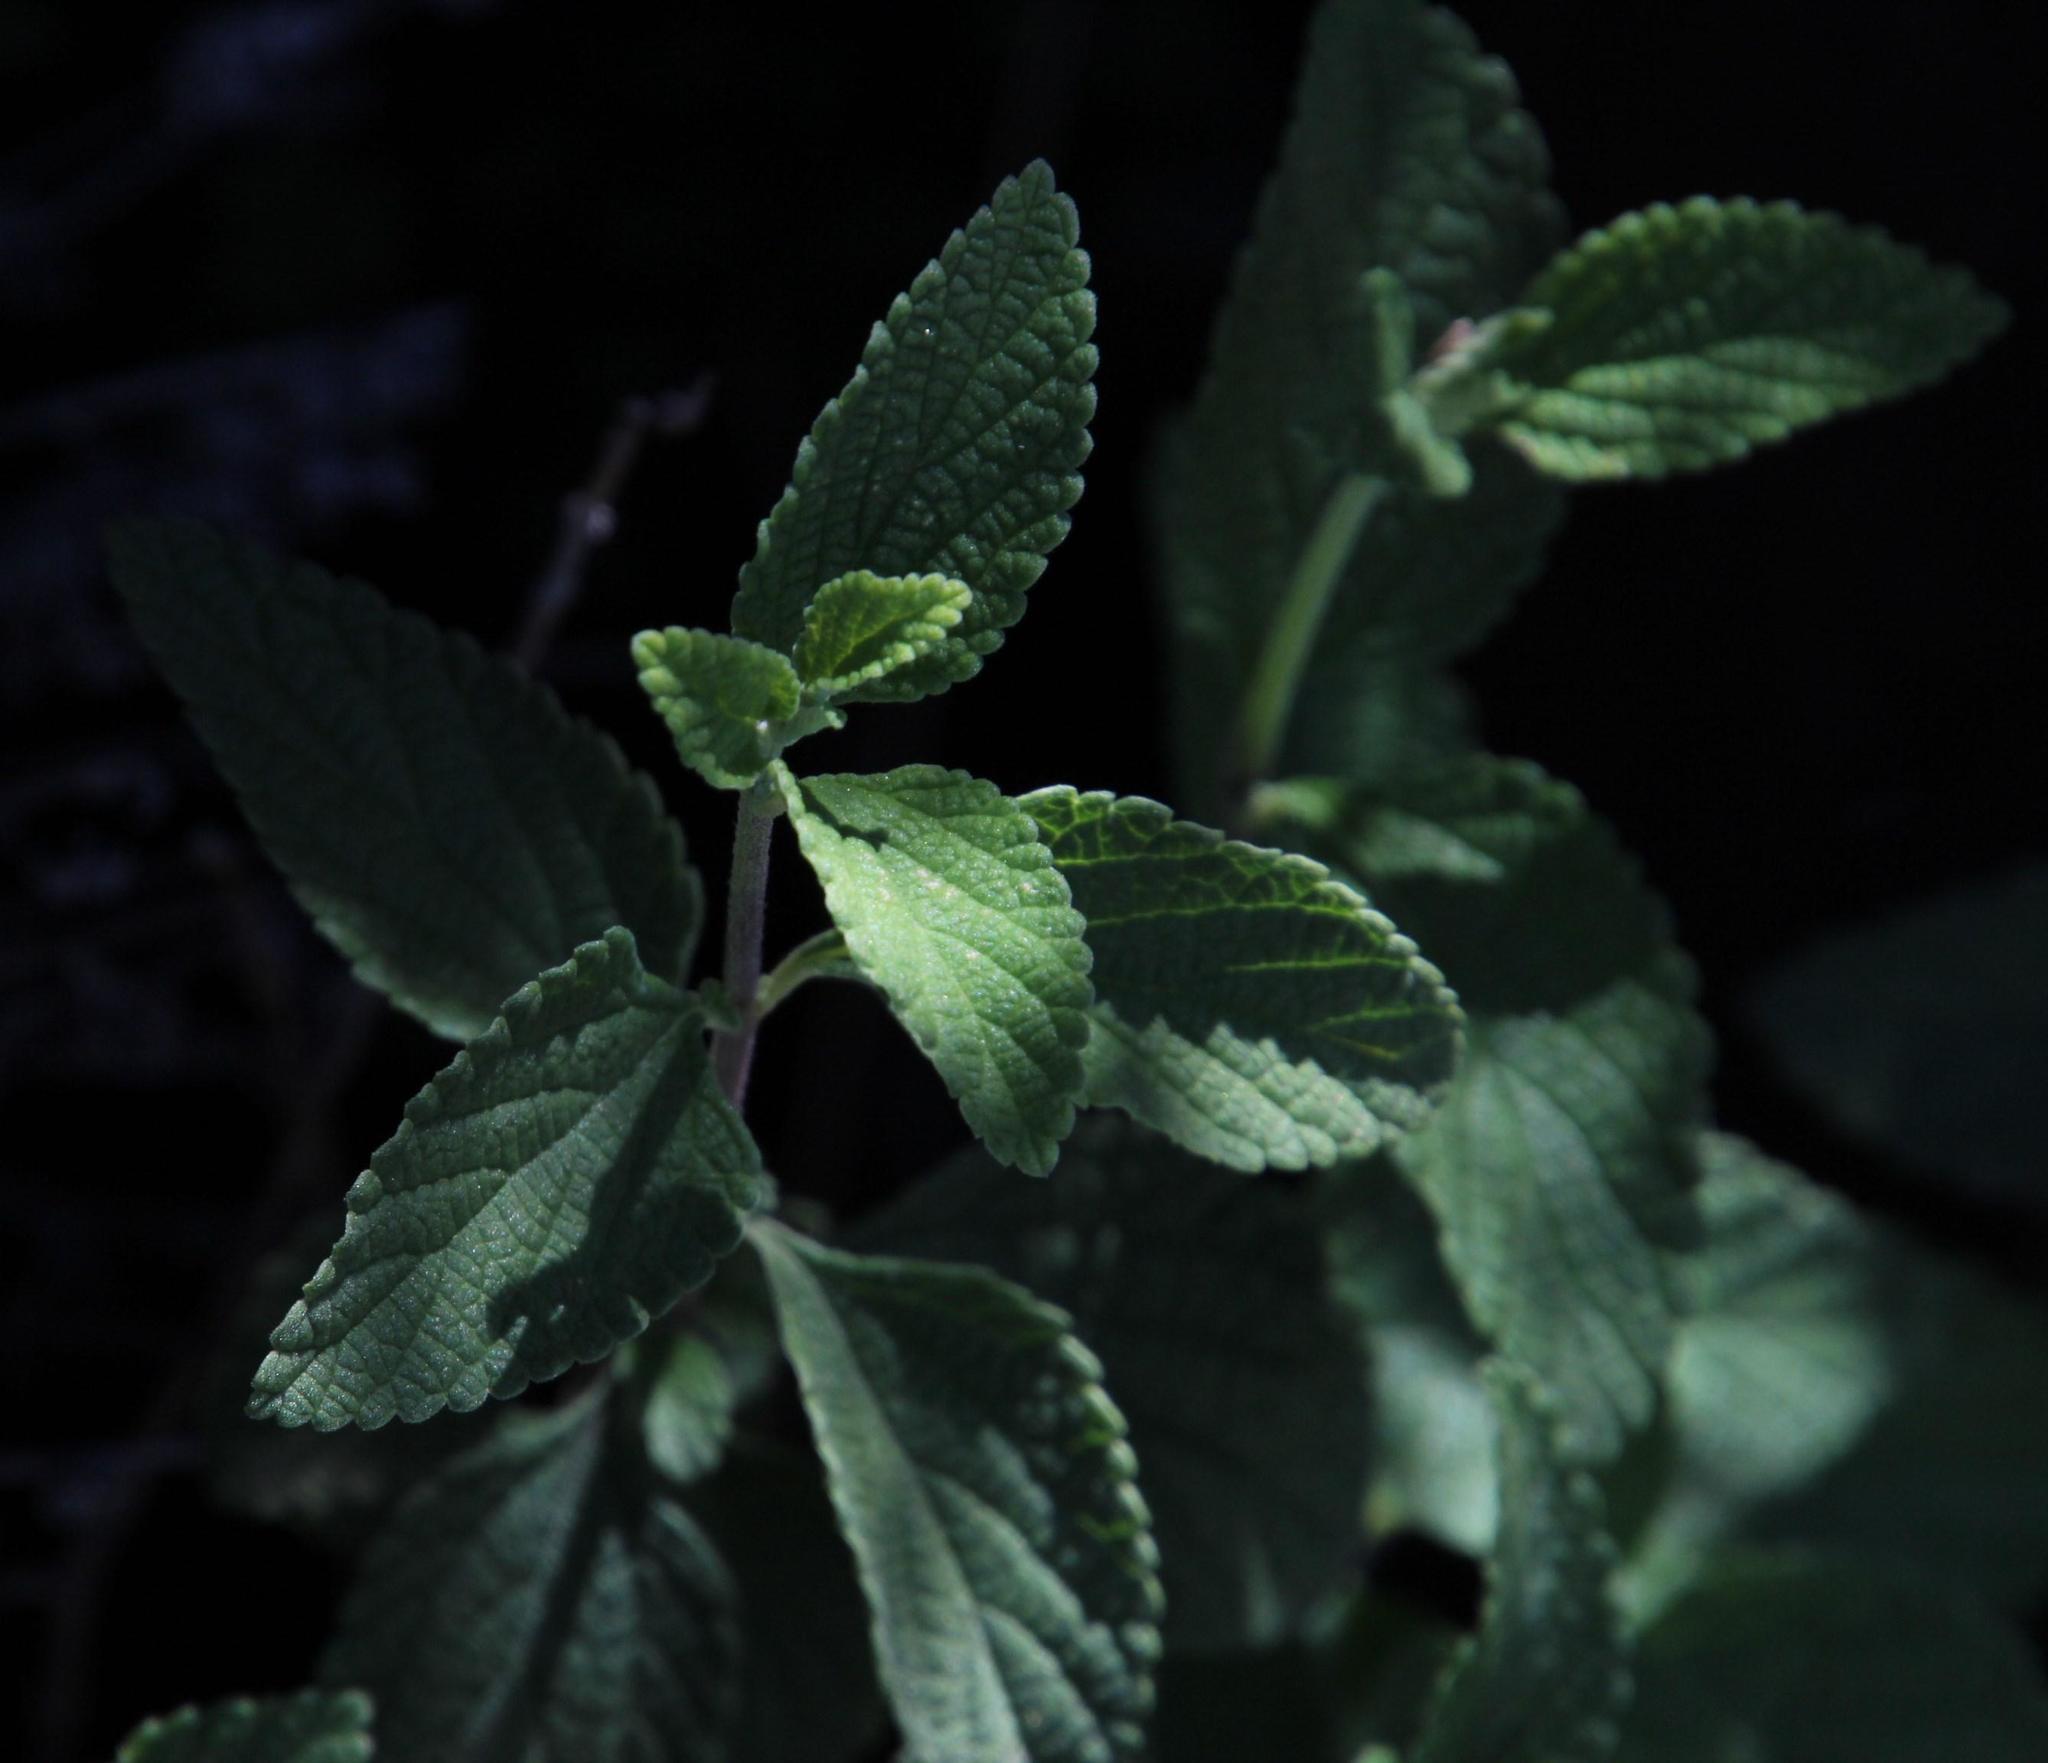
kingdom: Plantae
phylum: Tracheophyta
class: Magnoliopsida
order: Lamiales
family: Verbenaceae
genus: Lantana
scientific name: Lantana rugosa
